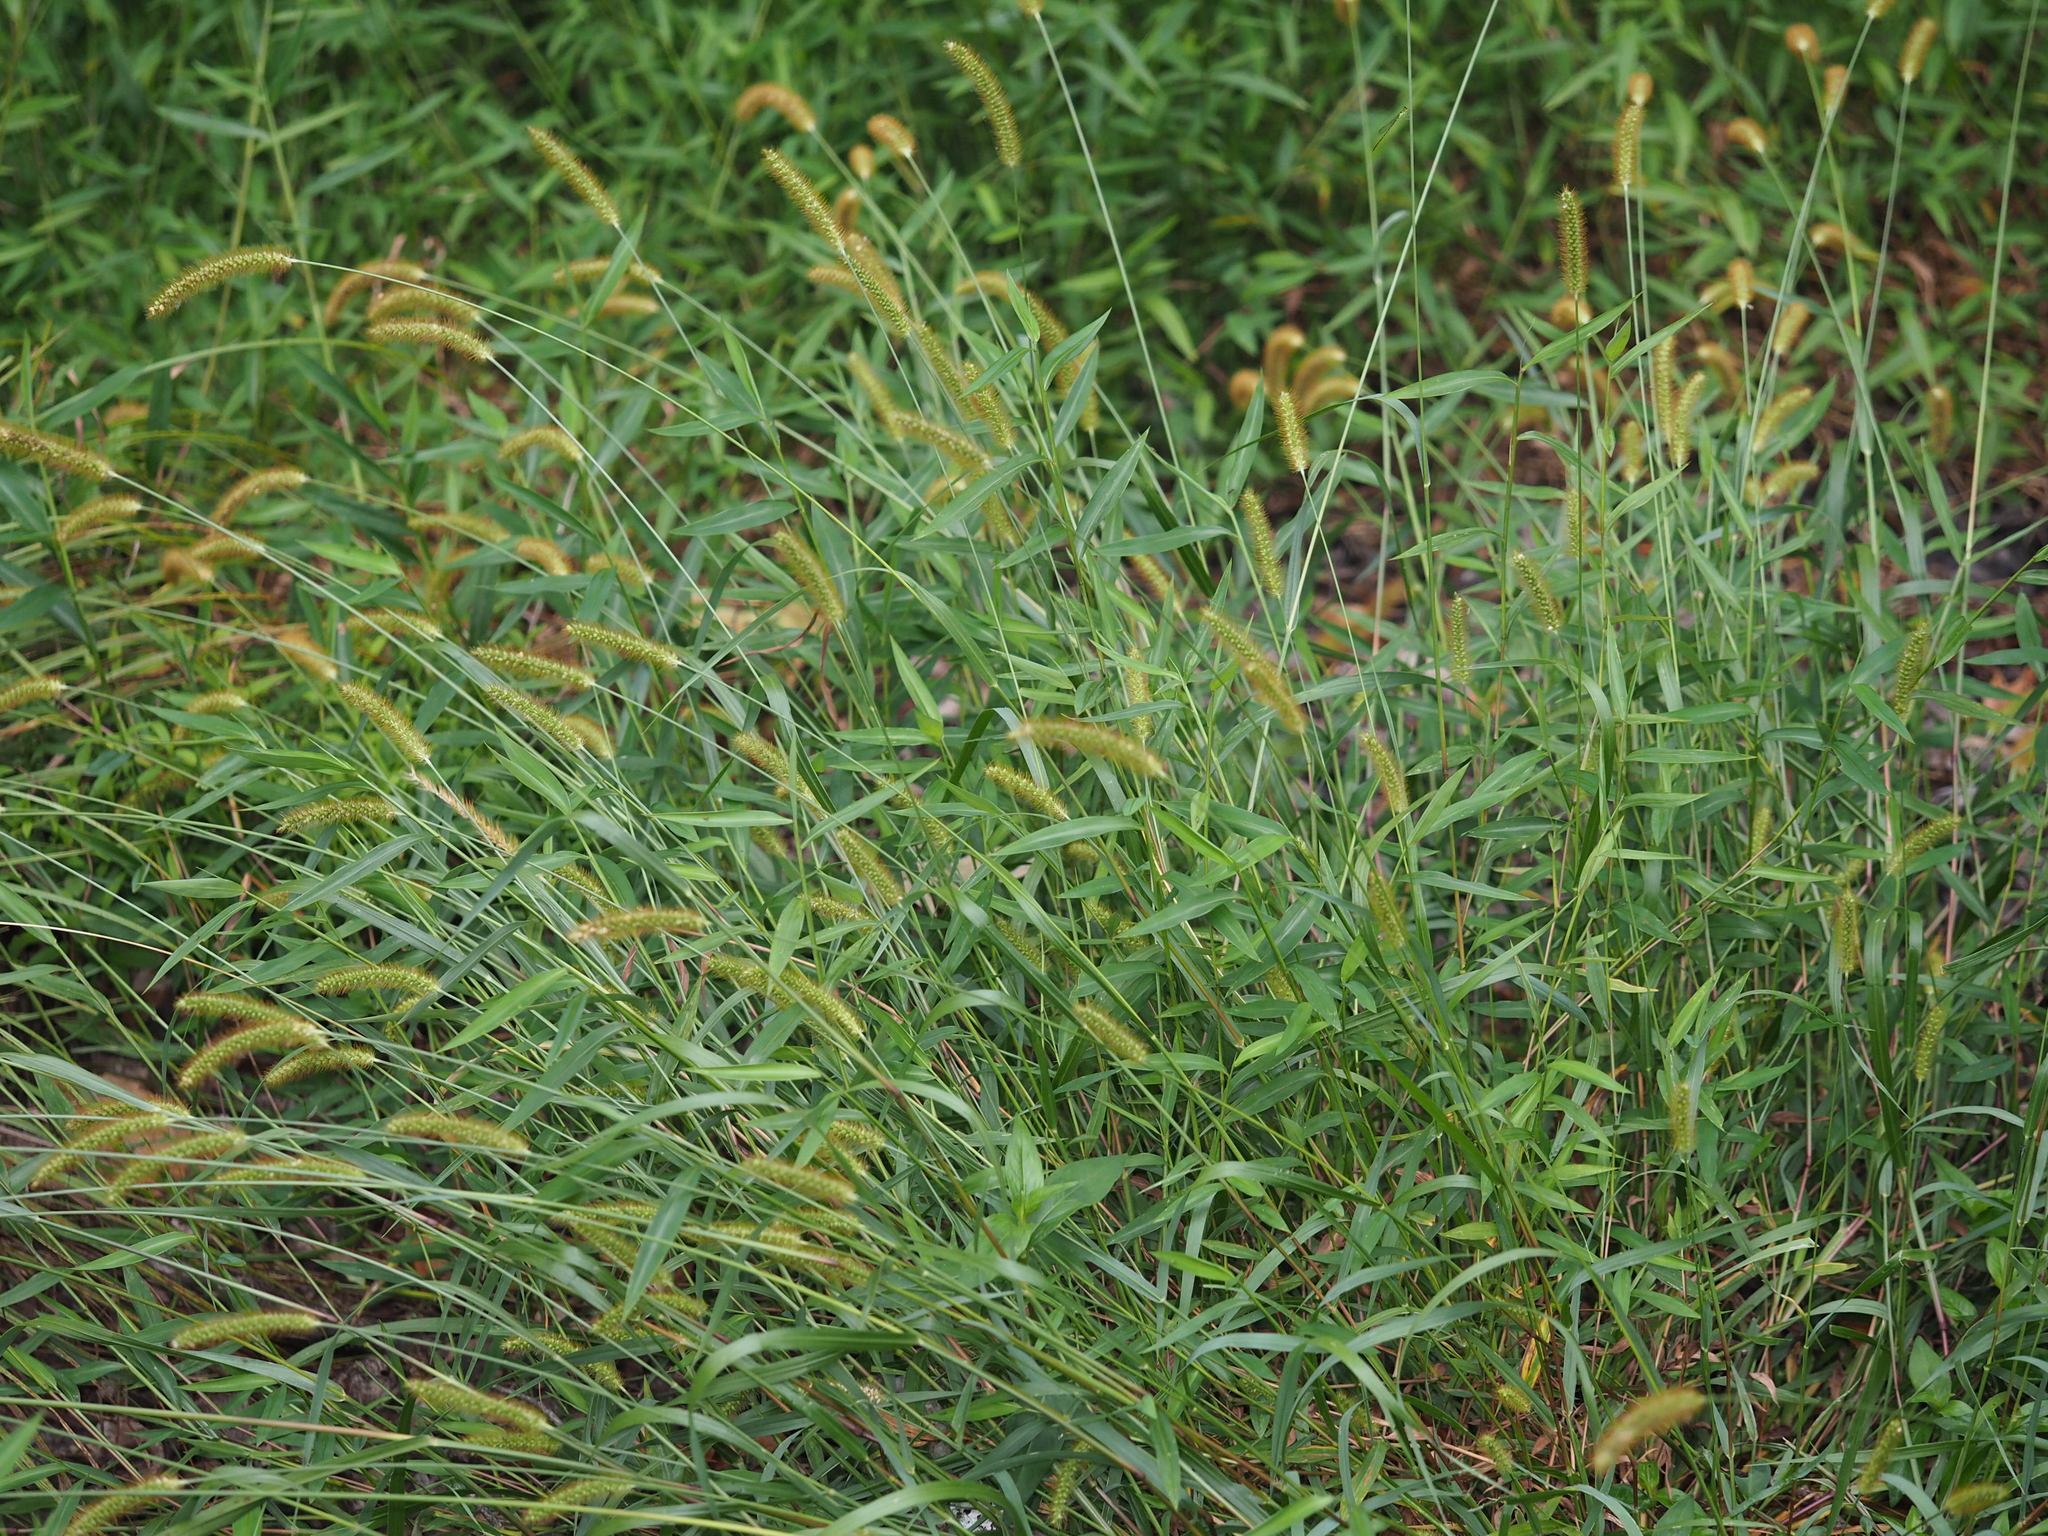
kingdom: Plantae
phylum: Tracheophyta
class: Liliopsida
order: Poales
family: Poaceae
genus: Setaria
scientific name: Setaria pumila
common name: Yellow bristle-grass
